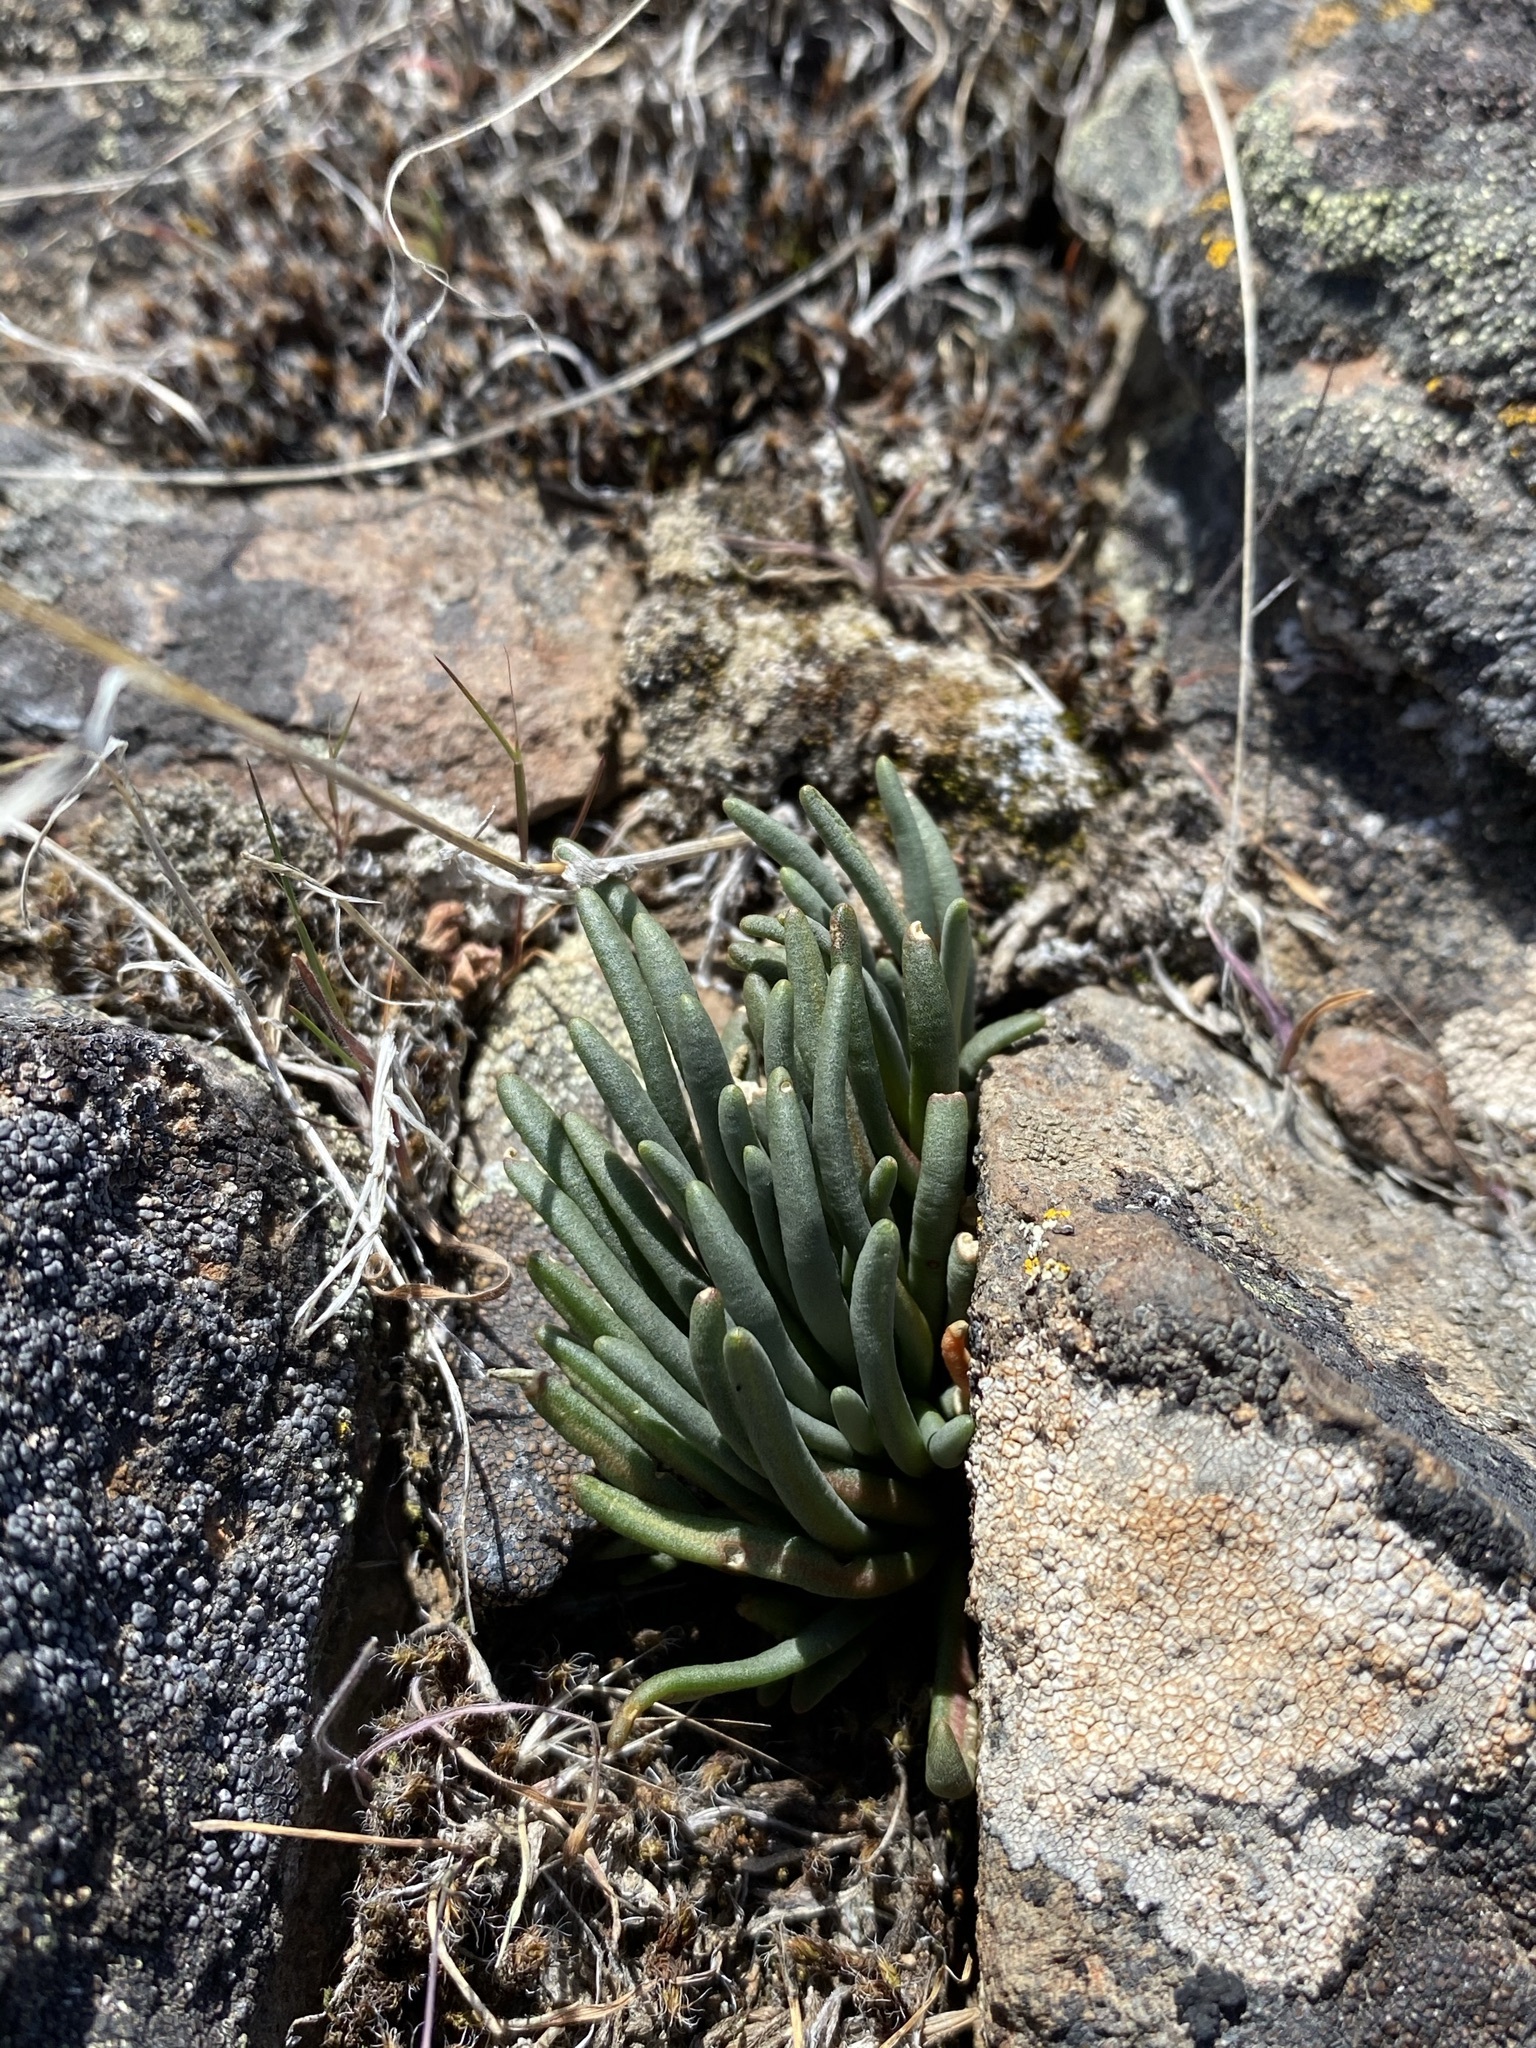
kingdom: Plantae
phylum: Tracheophyta
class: Magnoliopsida
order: Caryophyllales
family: Montiaceae
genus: Lewisia
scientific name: Lewisia rediviva
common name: Bitter-root
